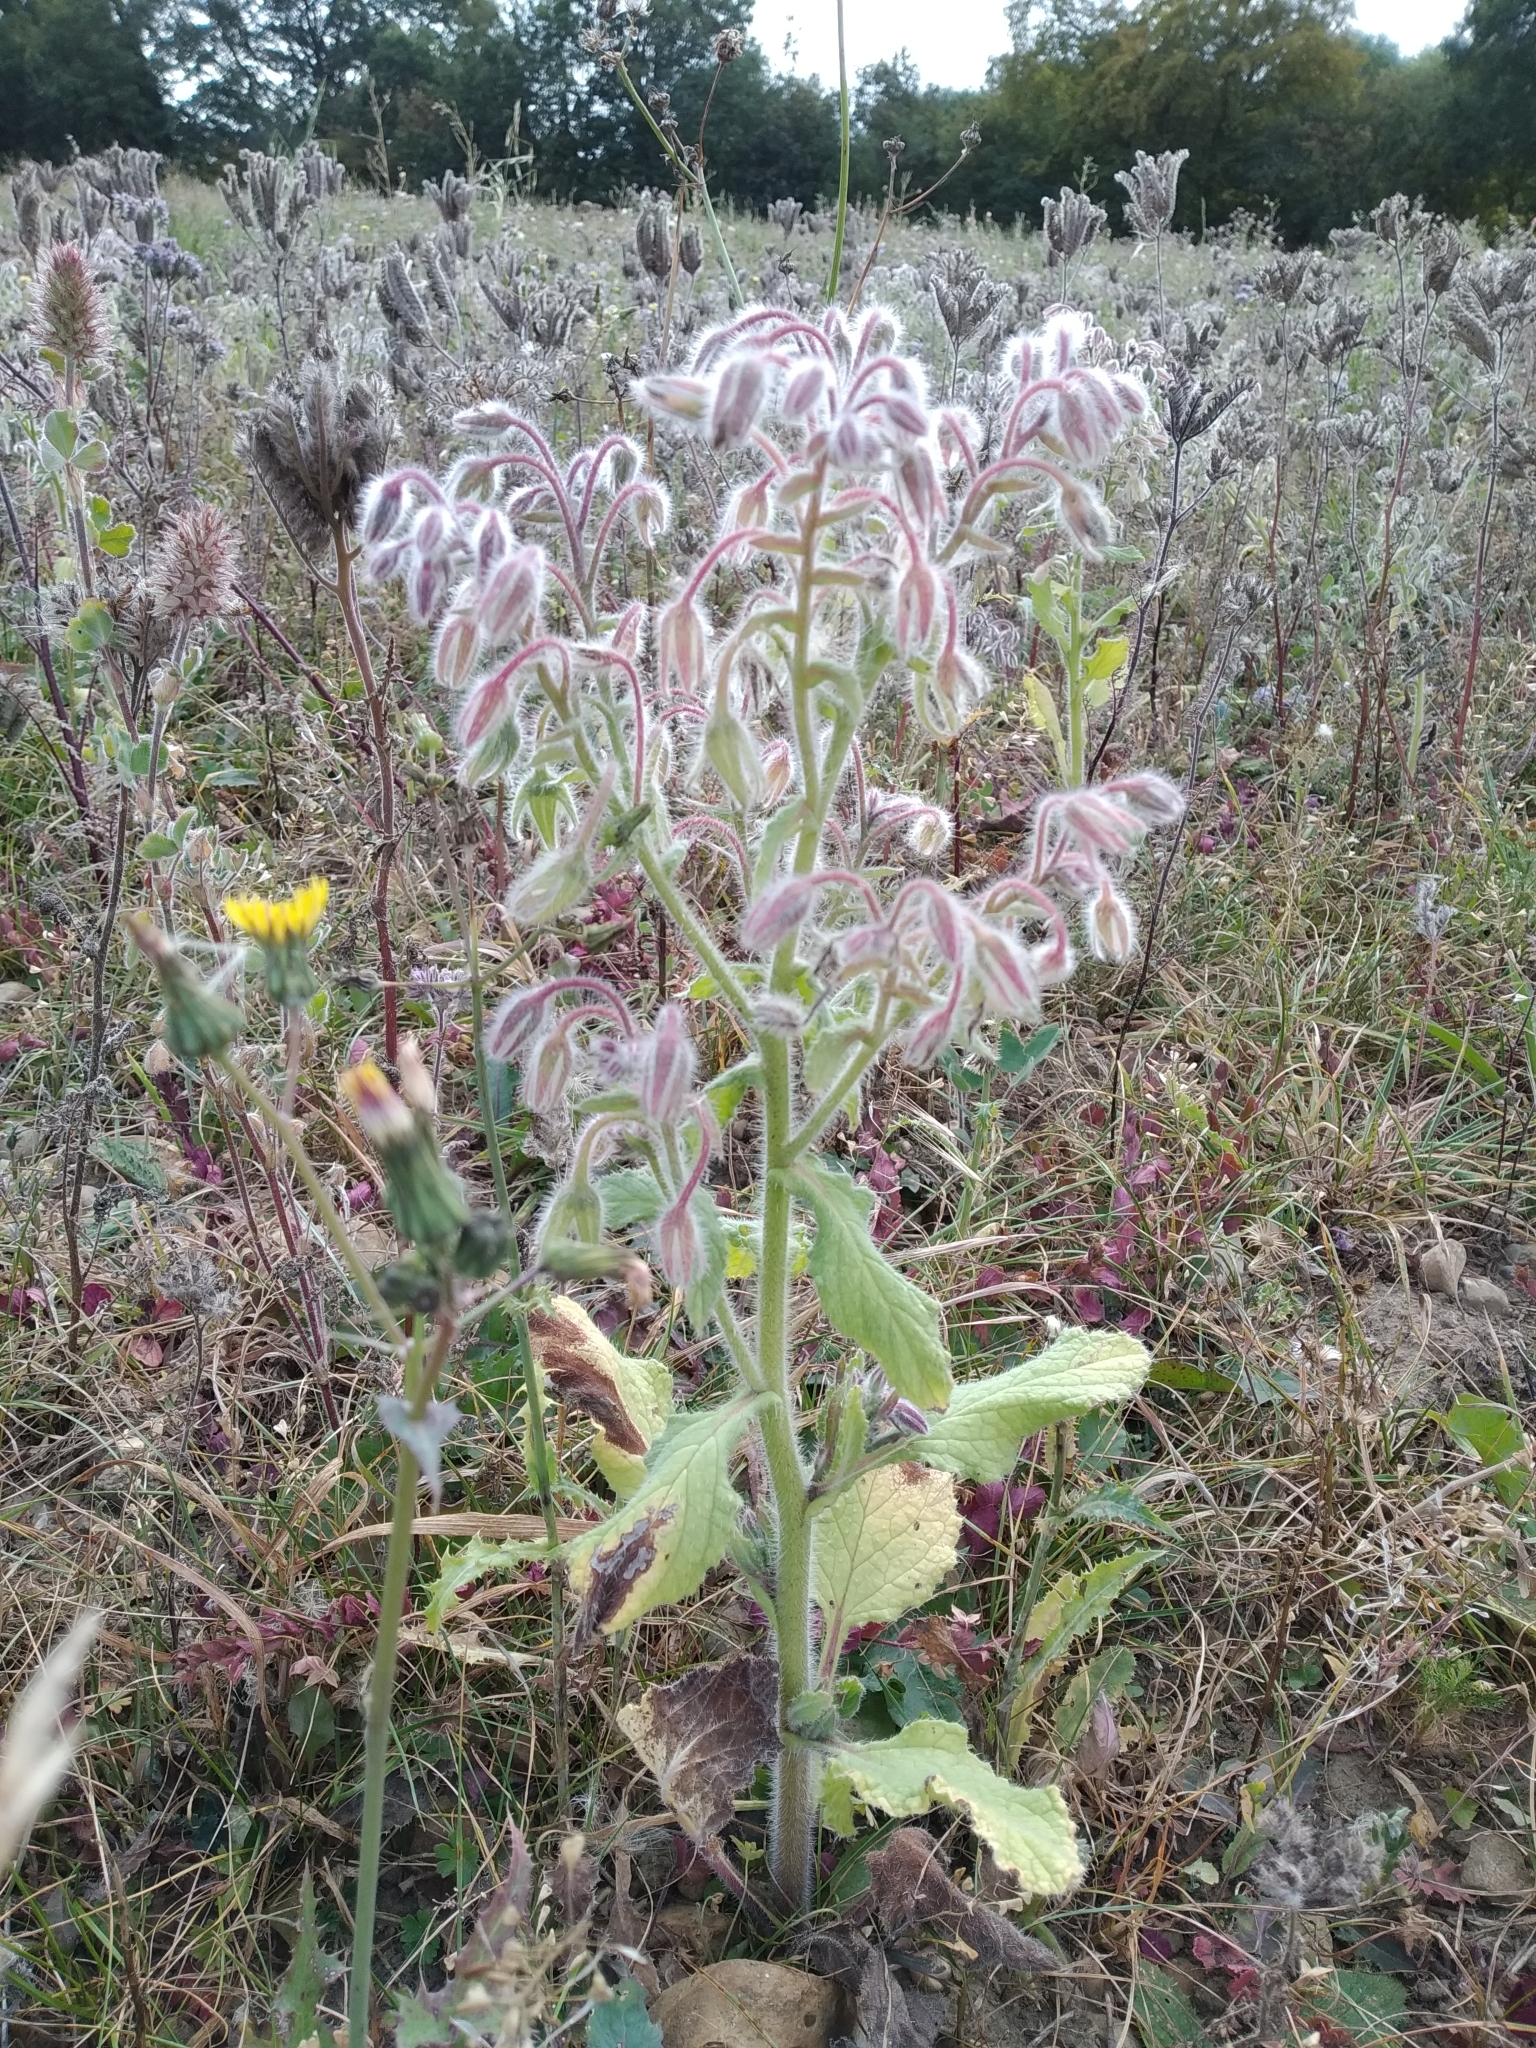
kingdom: Plantae
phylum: Tracheophyta
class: Magnoliopsida
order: Boraginales
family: Boraginaceae
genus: Borago
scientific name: Borago officinalis
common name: Borage
